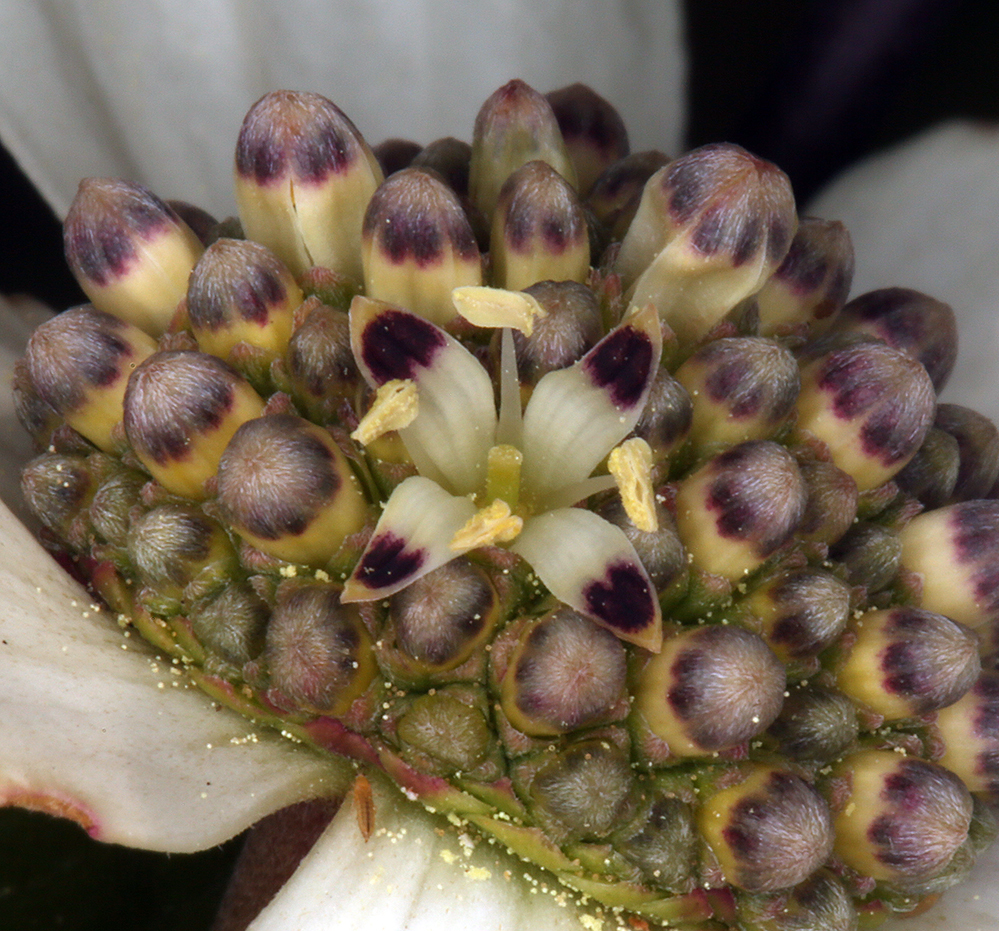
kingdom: Plantae
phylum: Tracheophyta
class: Magnoliopsida
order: Cornales
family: Cornaceae
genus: Cornus
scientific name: Cornus nuttallii
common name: Pacific dogwood
